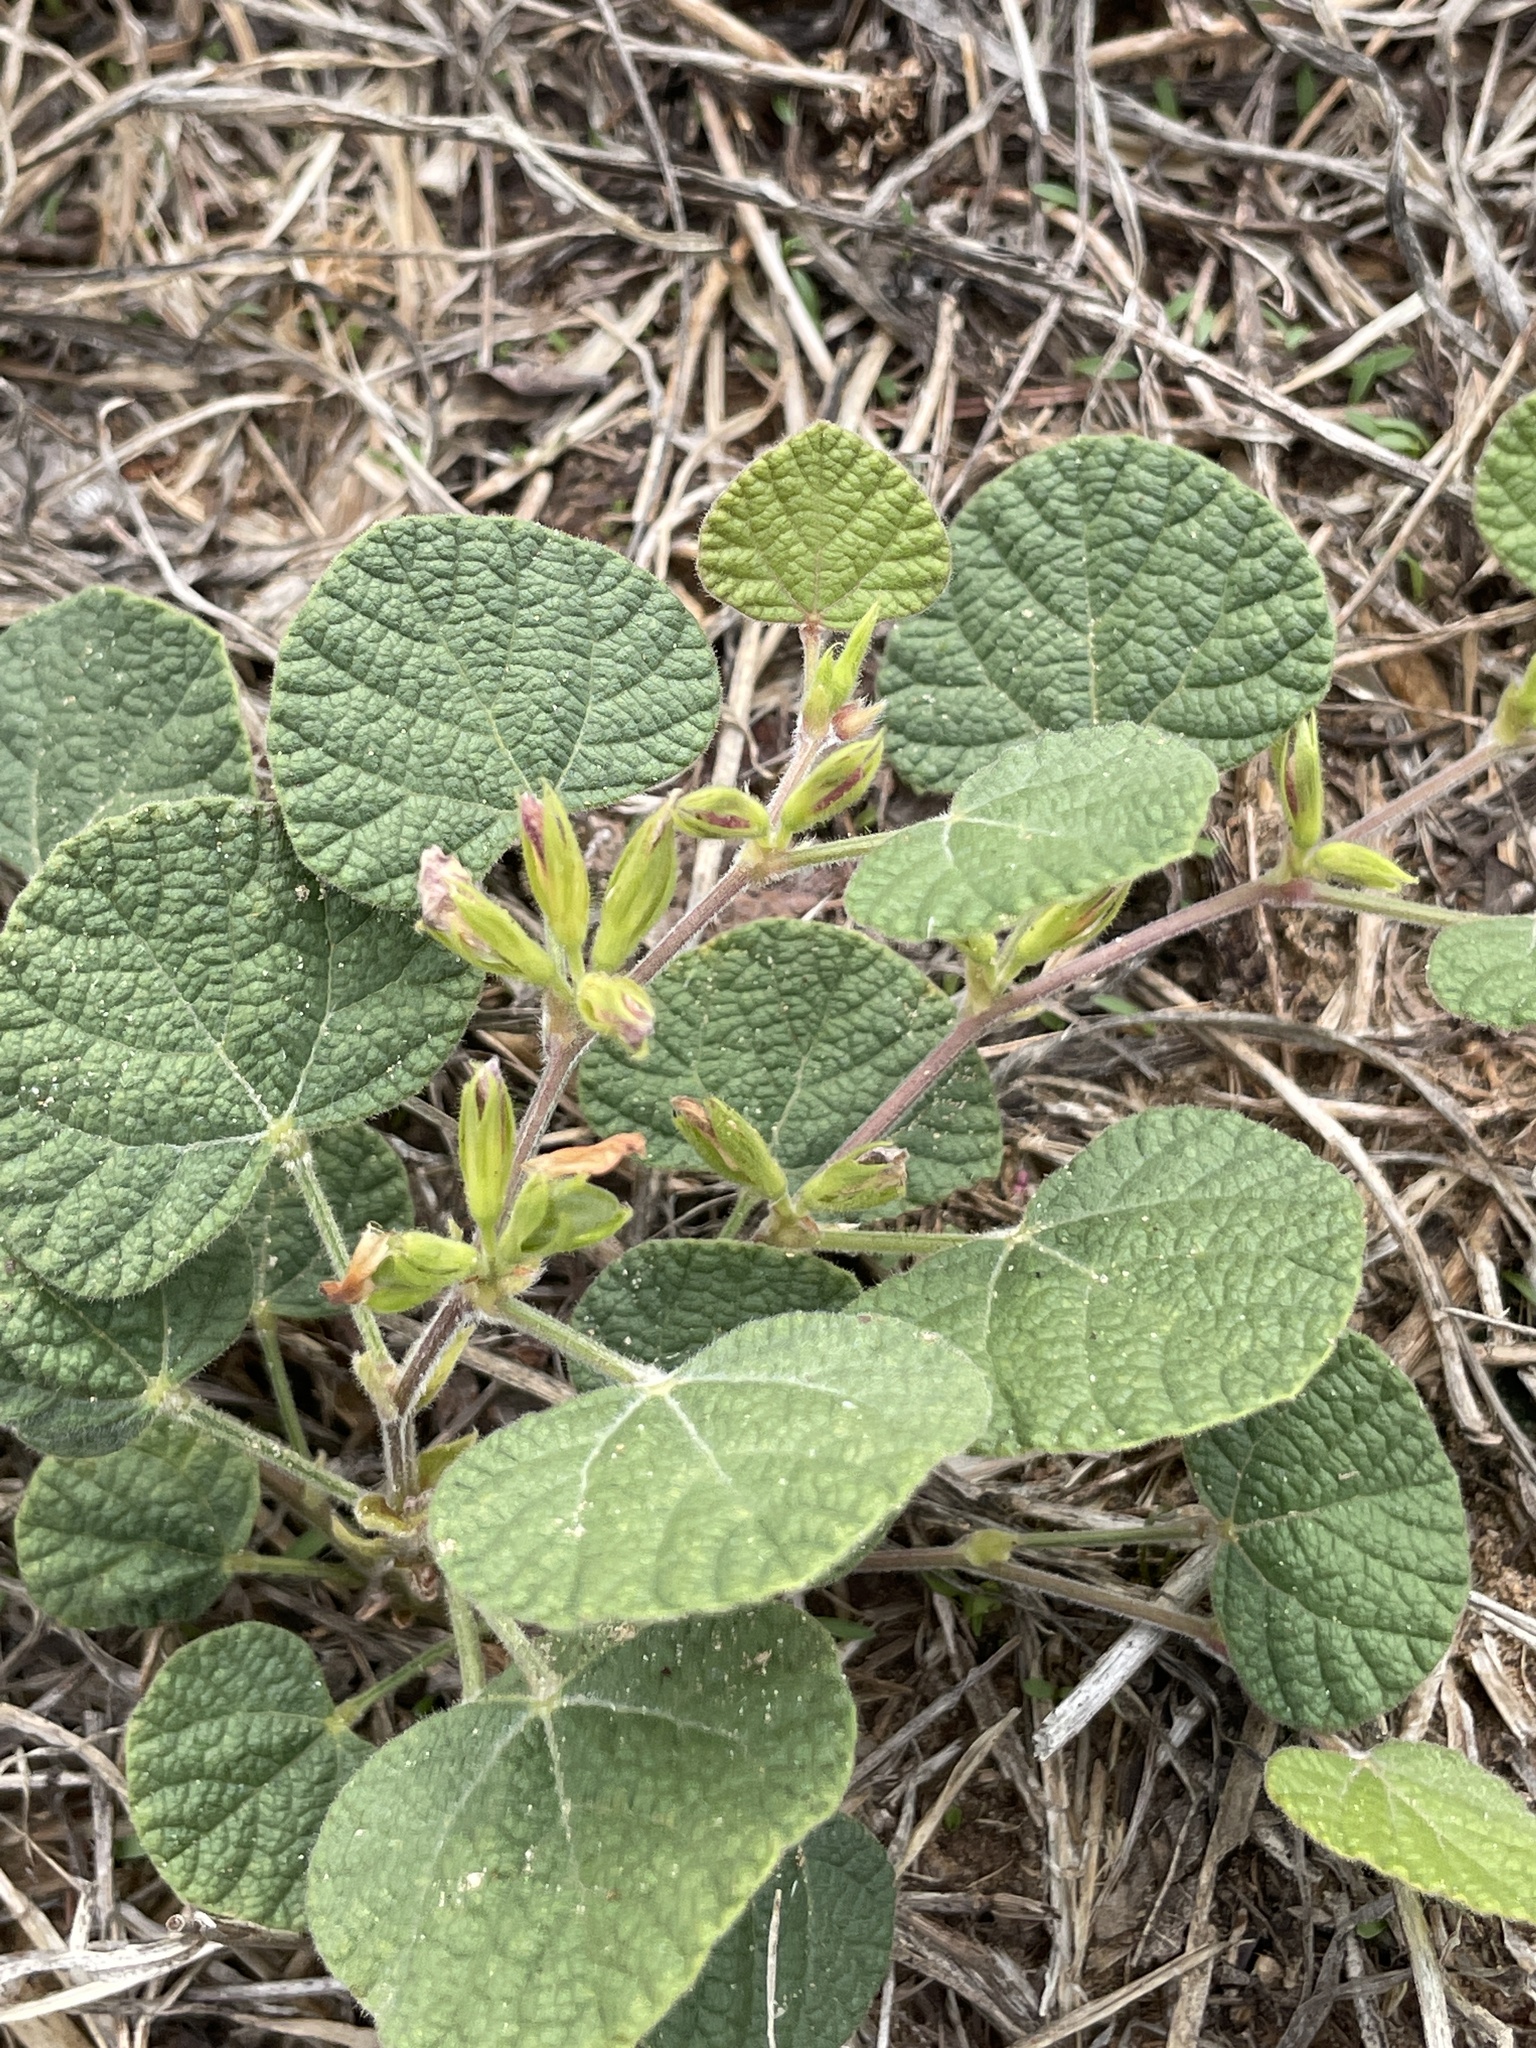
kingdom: Plantae
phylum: Tracheophyta
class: Magnoliopsida
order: Fabales
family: Fabaceae
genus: Rhynchosia
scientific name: Rhynchosia americana
